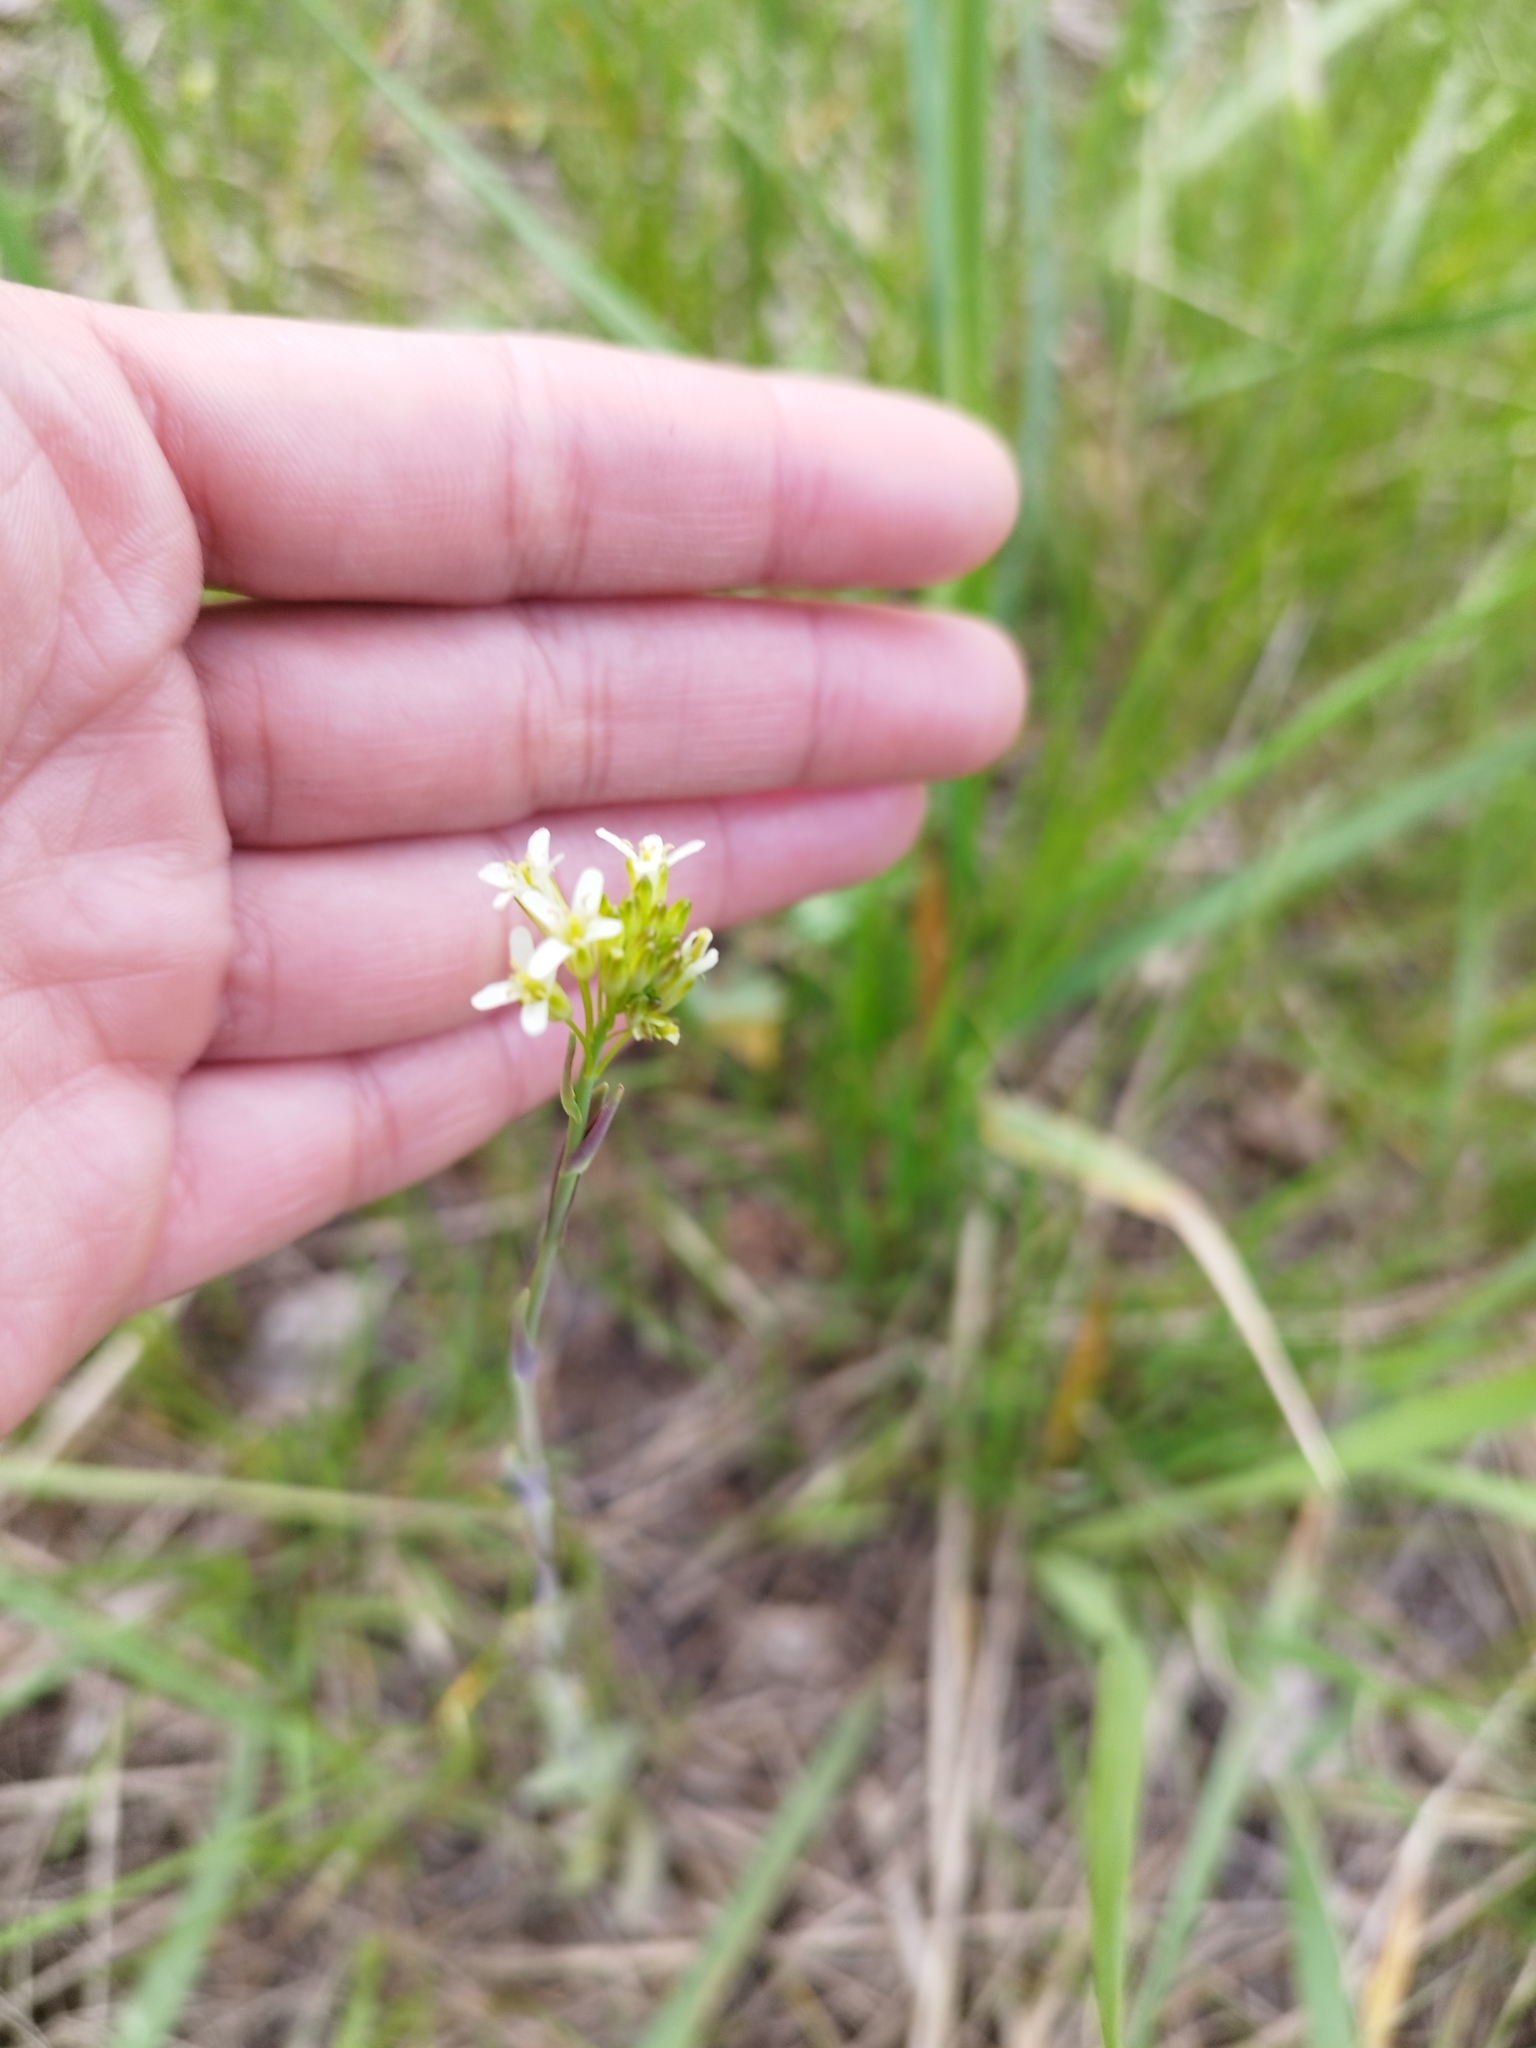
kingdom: Plantae
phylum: Tracheophyta
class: Magnoliopsida
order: Brassicales
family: Brassicaceae
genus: Turritis
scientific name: Turritis glabra
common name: Tower rockcress
